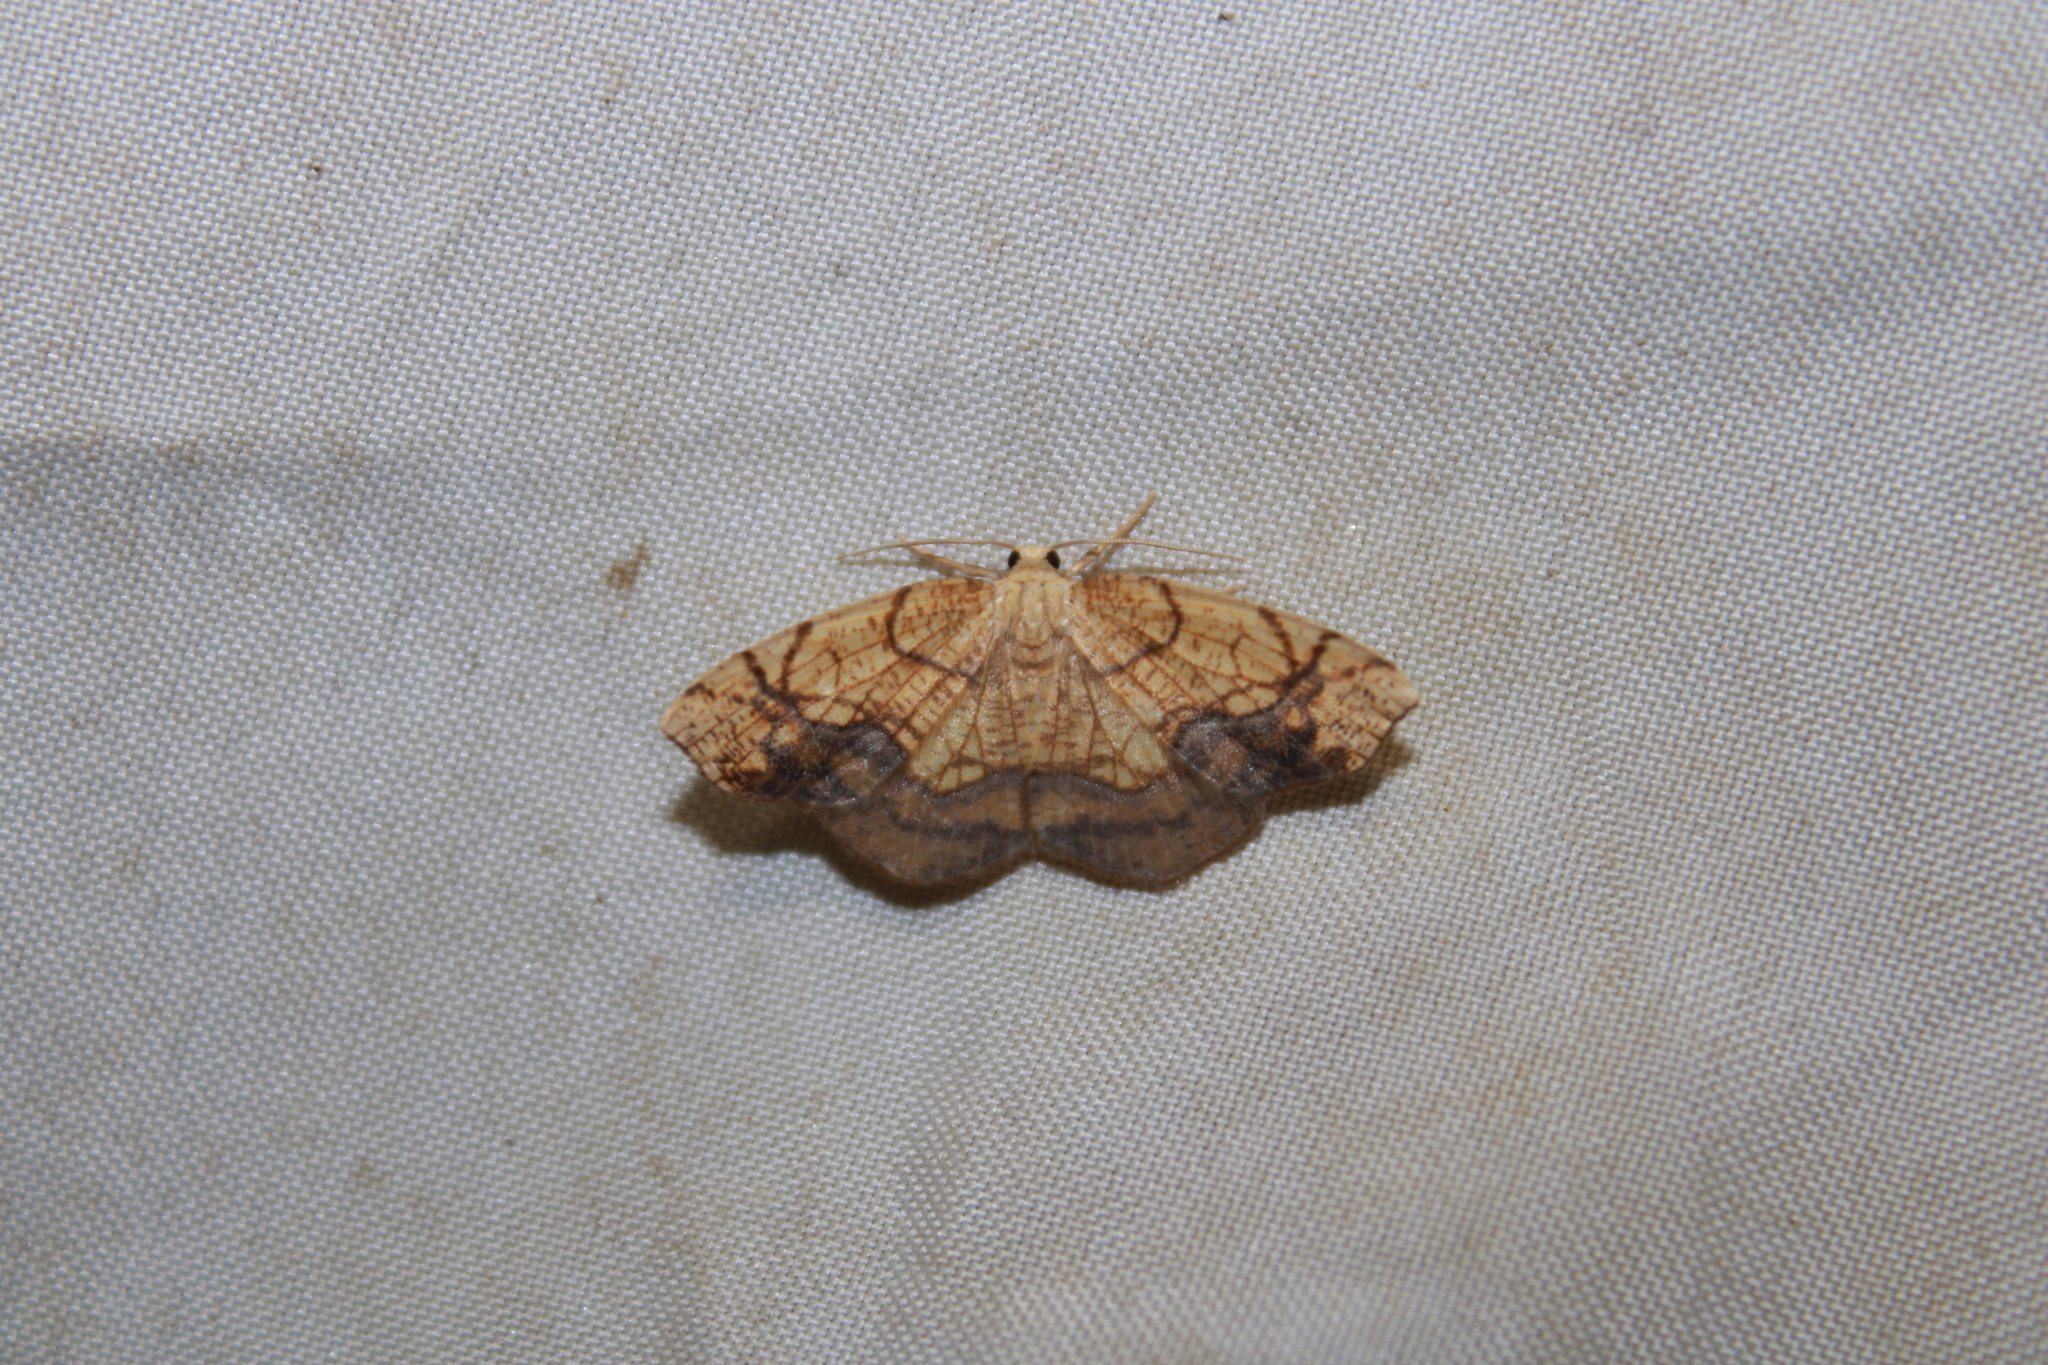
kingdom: Animalia
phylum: Arthropoda
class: Insecta
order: Lepidoptera
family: Geometridae
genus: Nematocampa
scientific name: Nematocampa resistaria
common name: Horned spanworm moth
